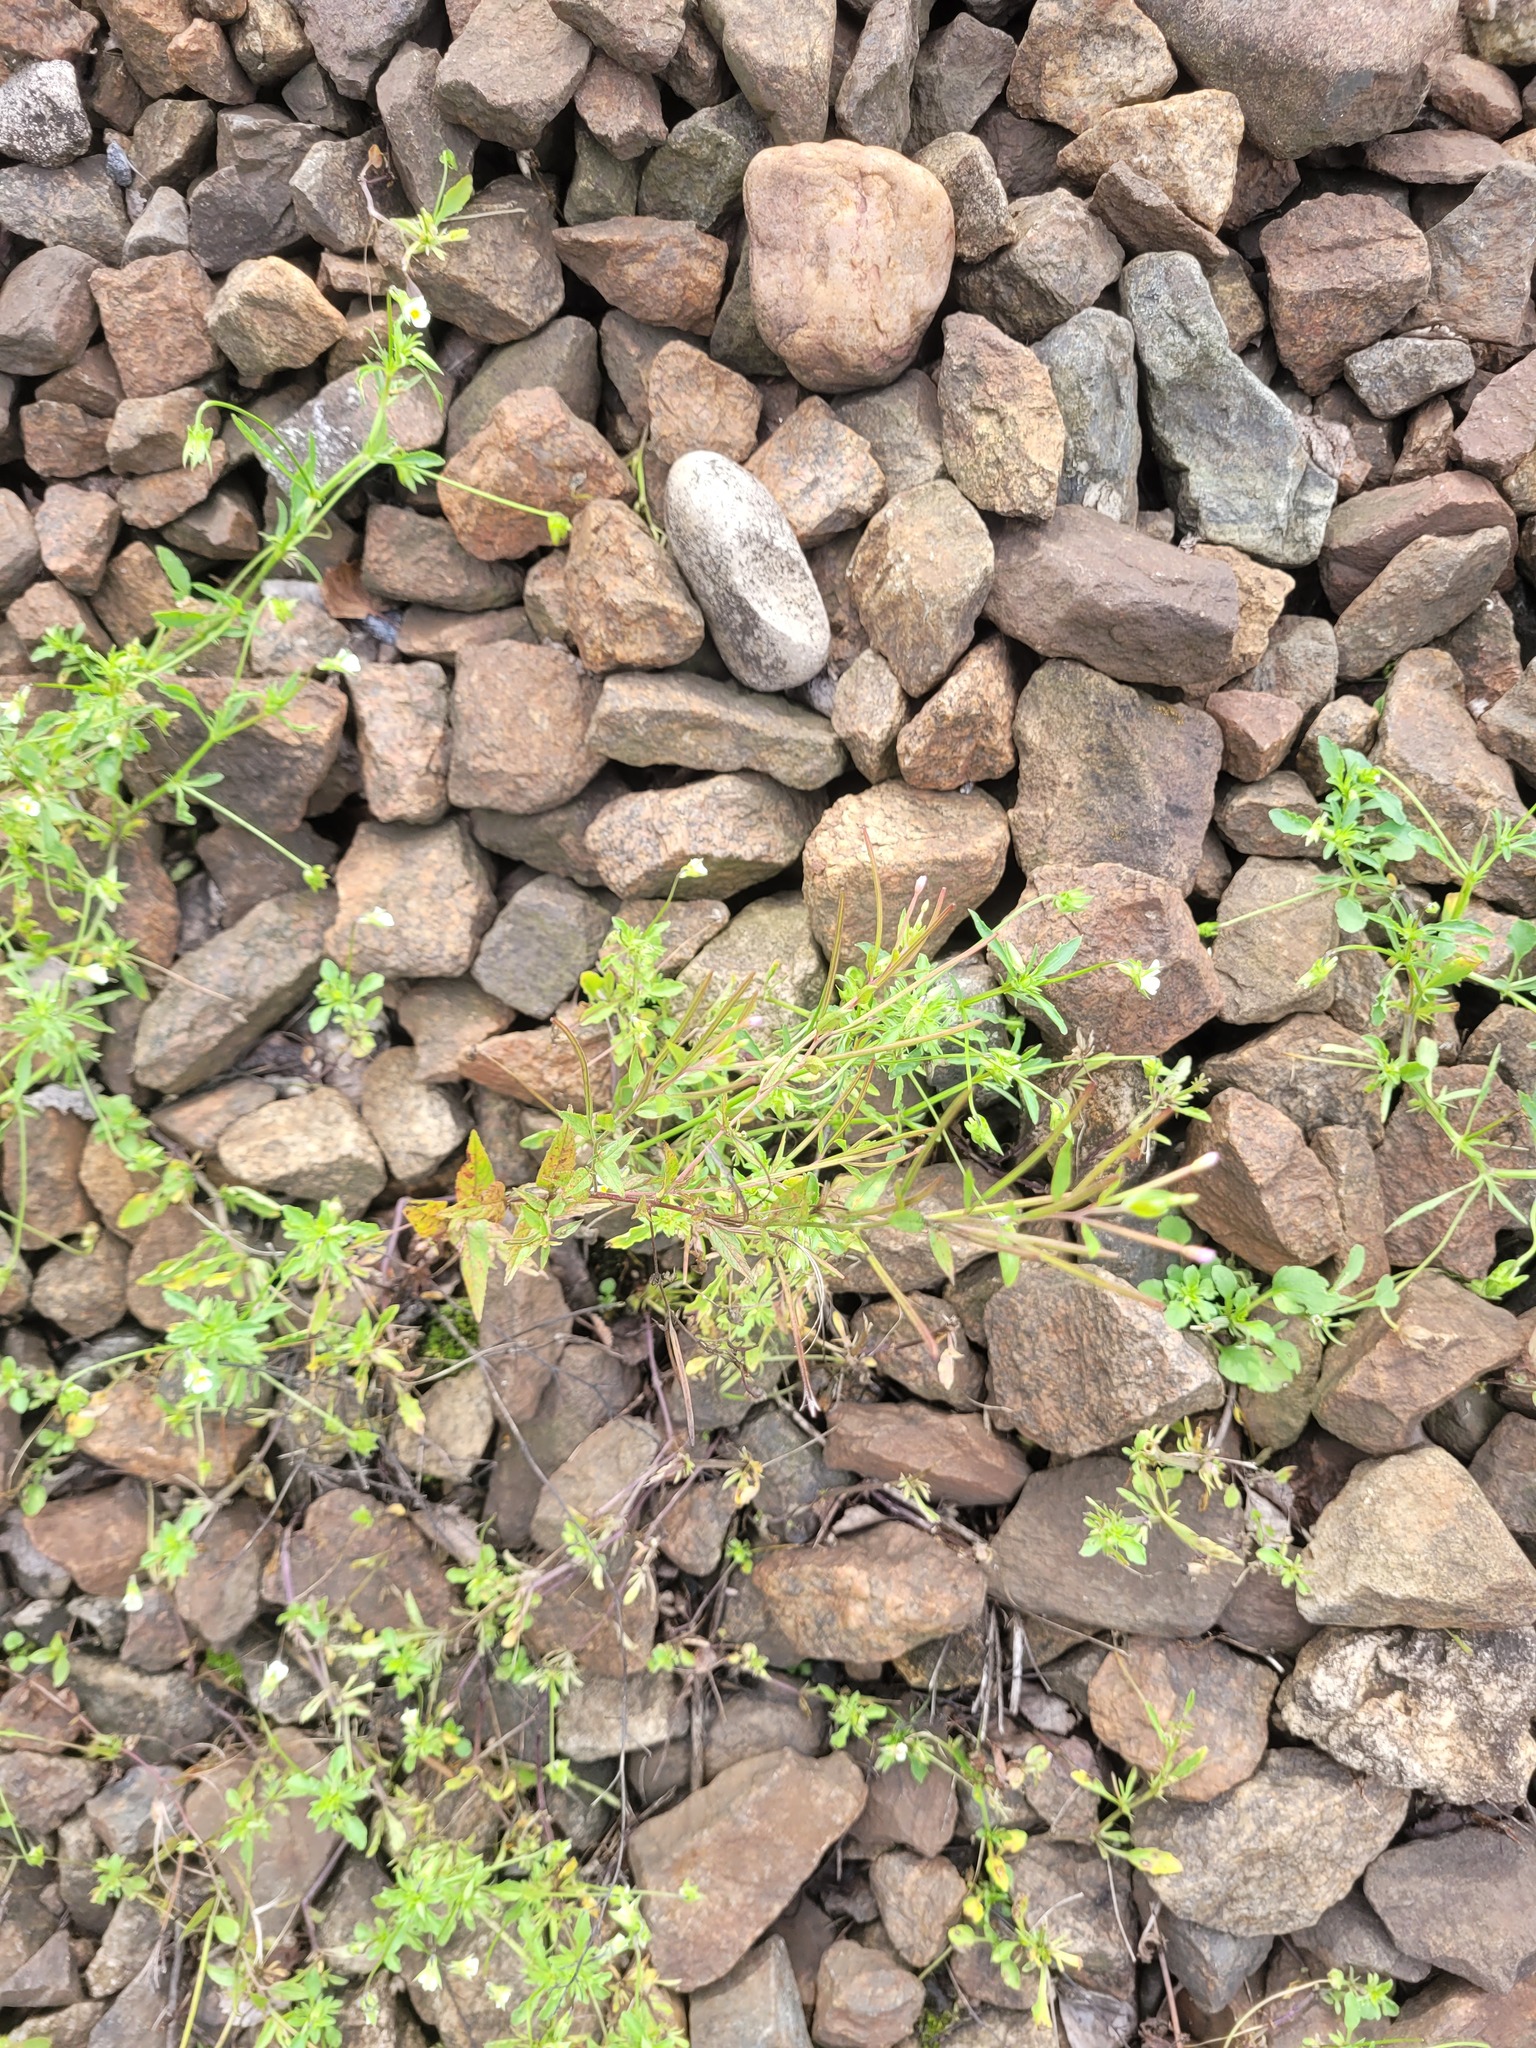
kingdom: Plantae
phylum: Tracheophyta
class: Magnoliopsida
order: Myrtales
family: Onagraceae
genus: Epilobium
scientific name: Epilobium ciliatum
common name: American willowherb
